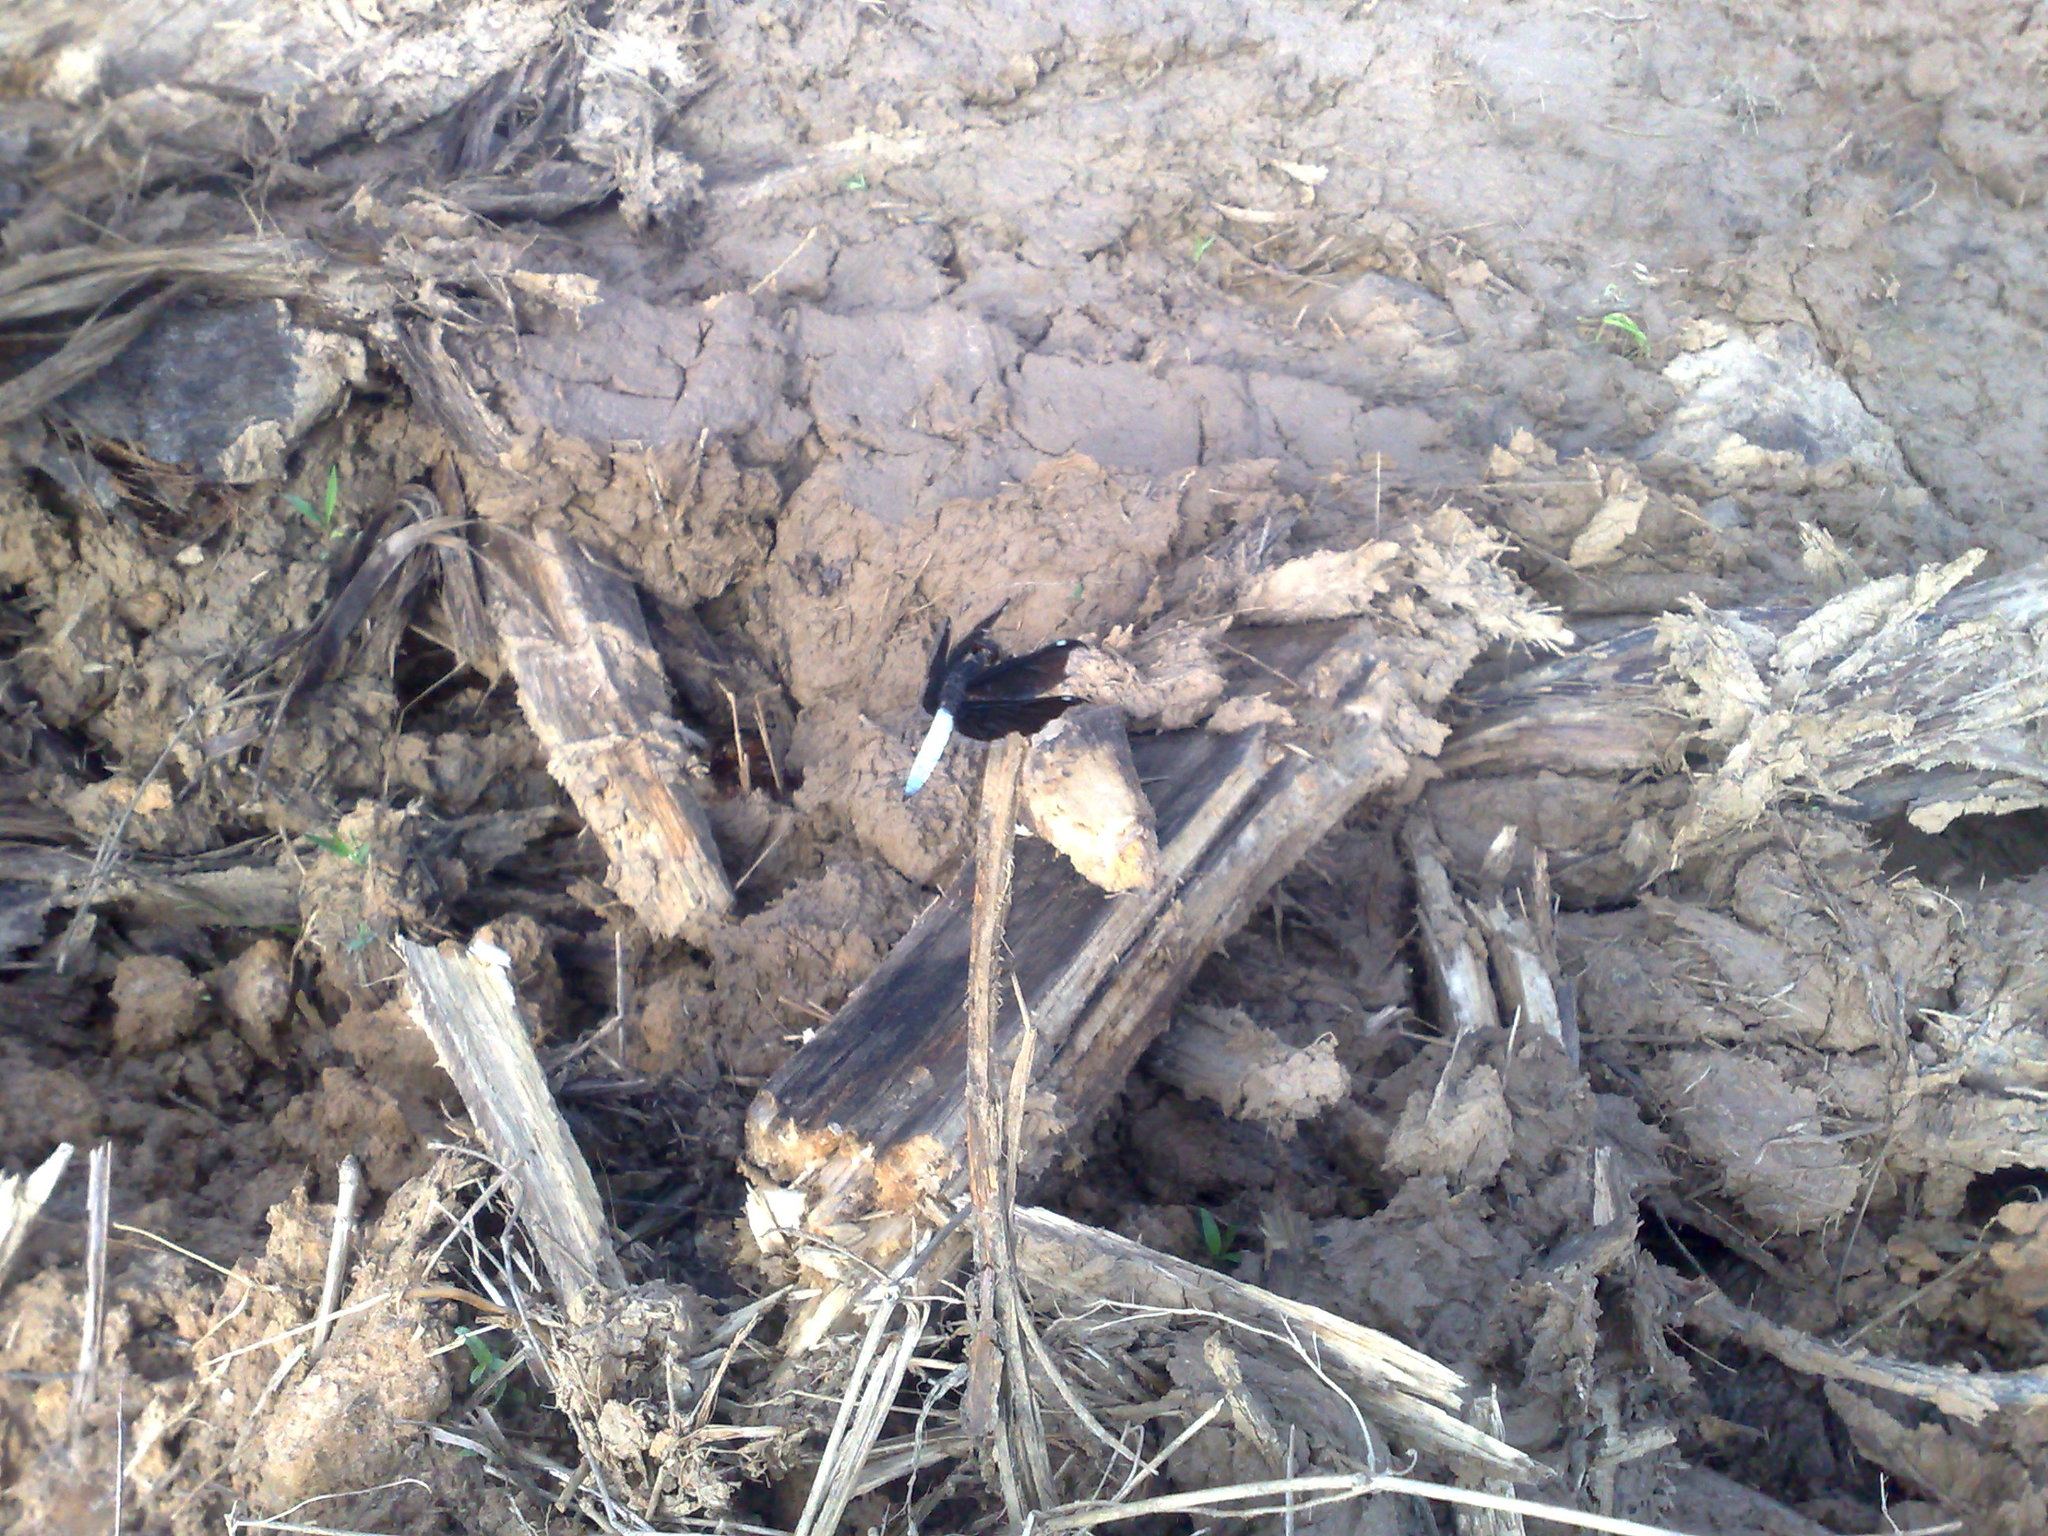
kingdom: Animalia
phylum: Arthropoda
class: Insecta
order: Odonata
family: Libellulidae
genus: Palpopleura
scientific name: Palpopleura lucia
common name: Lucia widow
